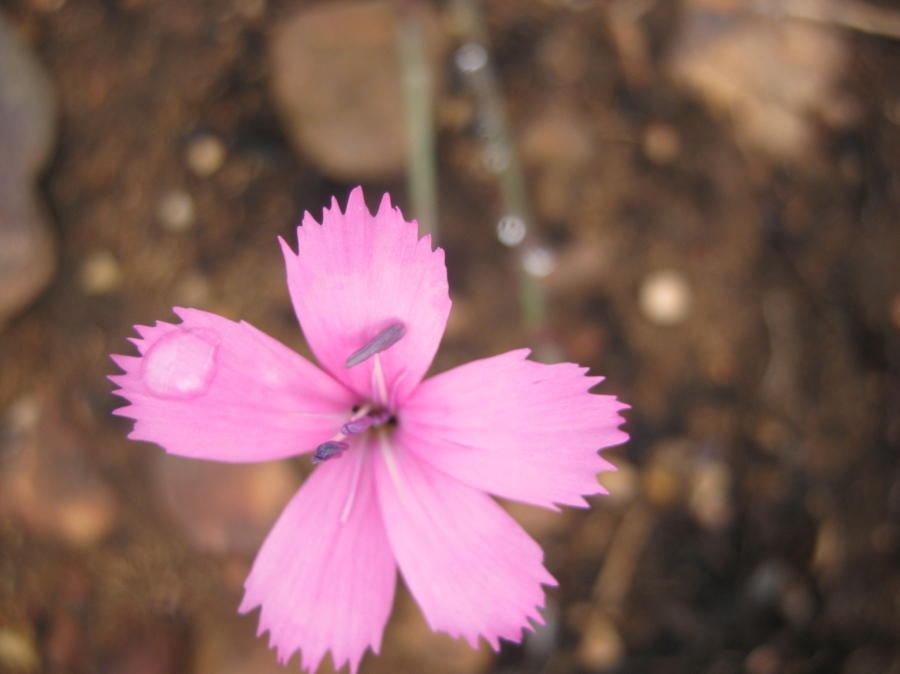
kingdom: Plantae
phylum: Tracheophyta
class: Magnoliopsida
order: Caryophyllales
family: Caryophyllaceae
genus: Dianthus
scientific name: Dianthus basuticus
